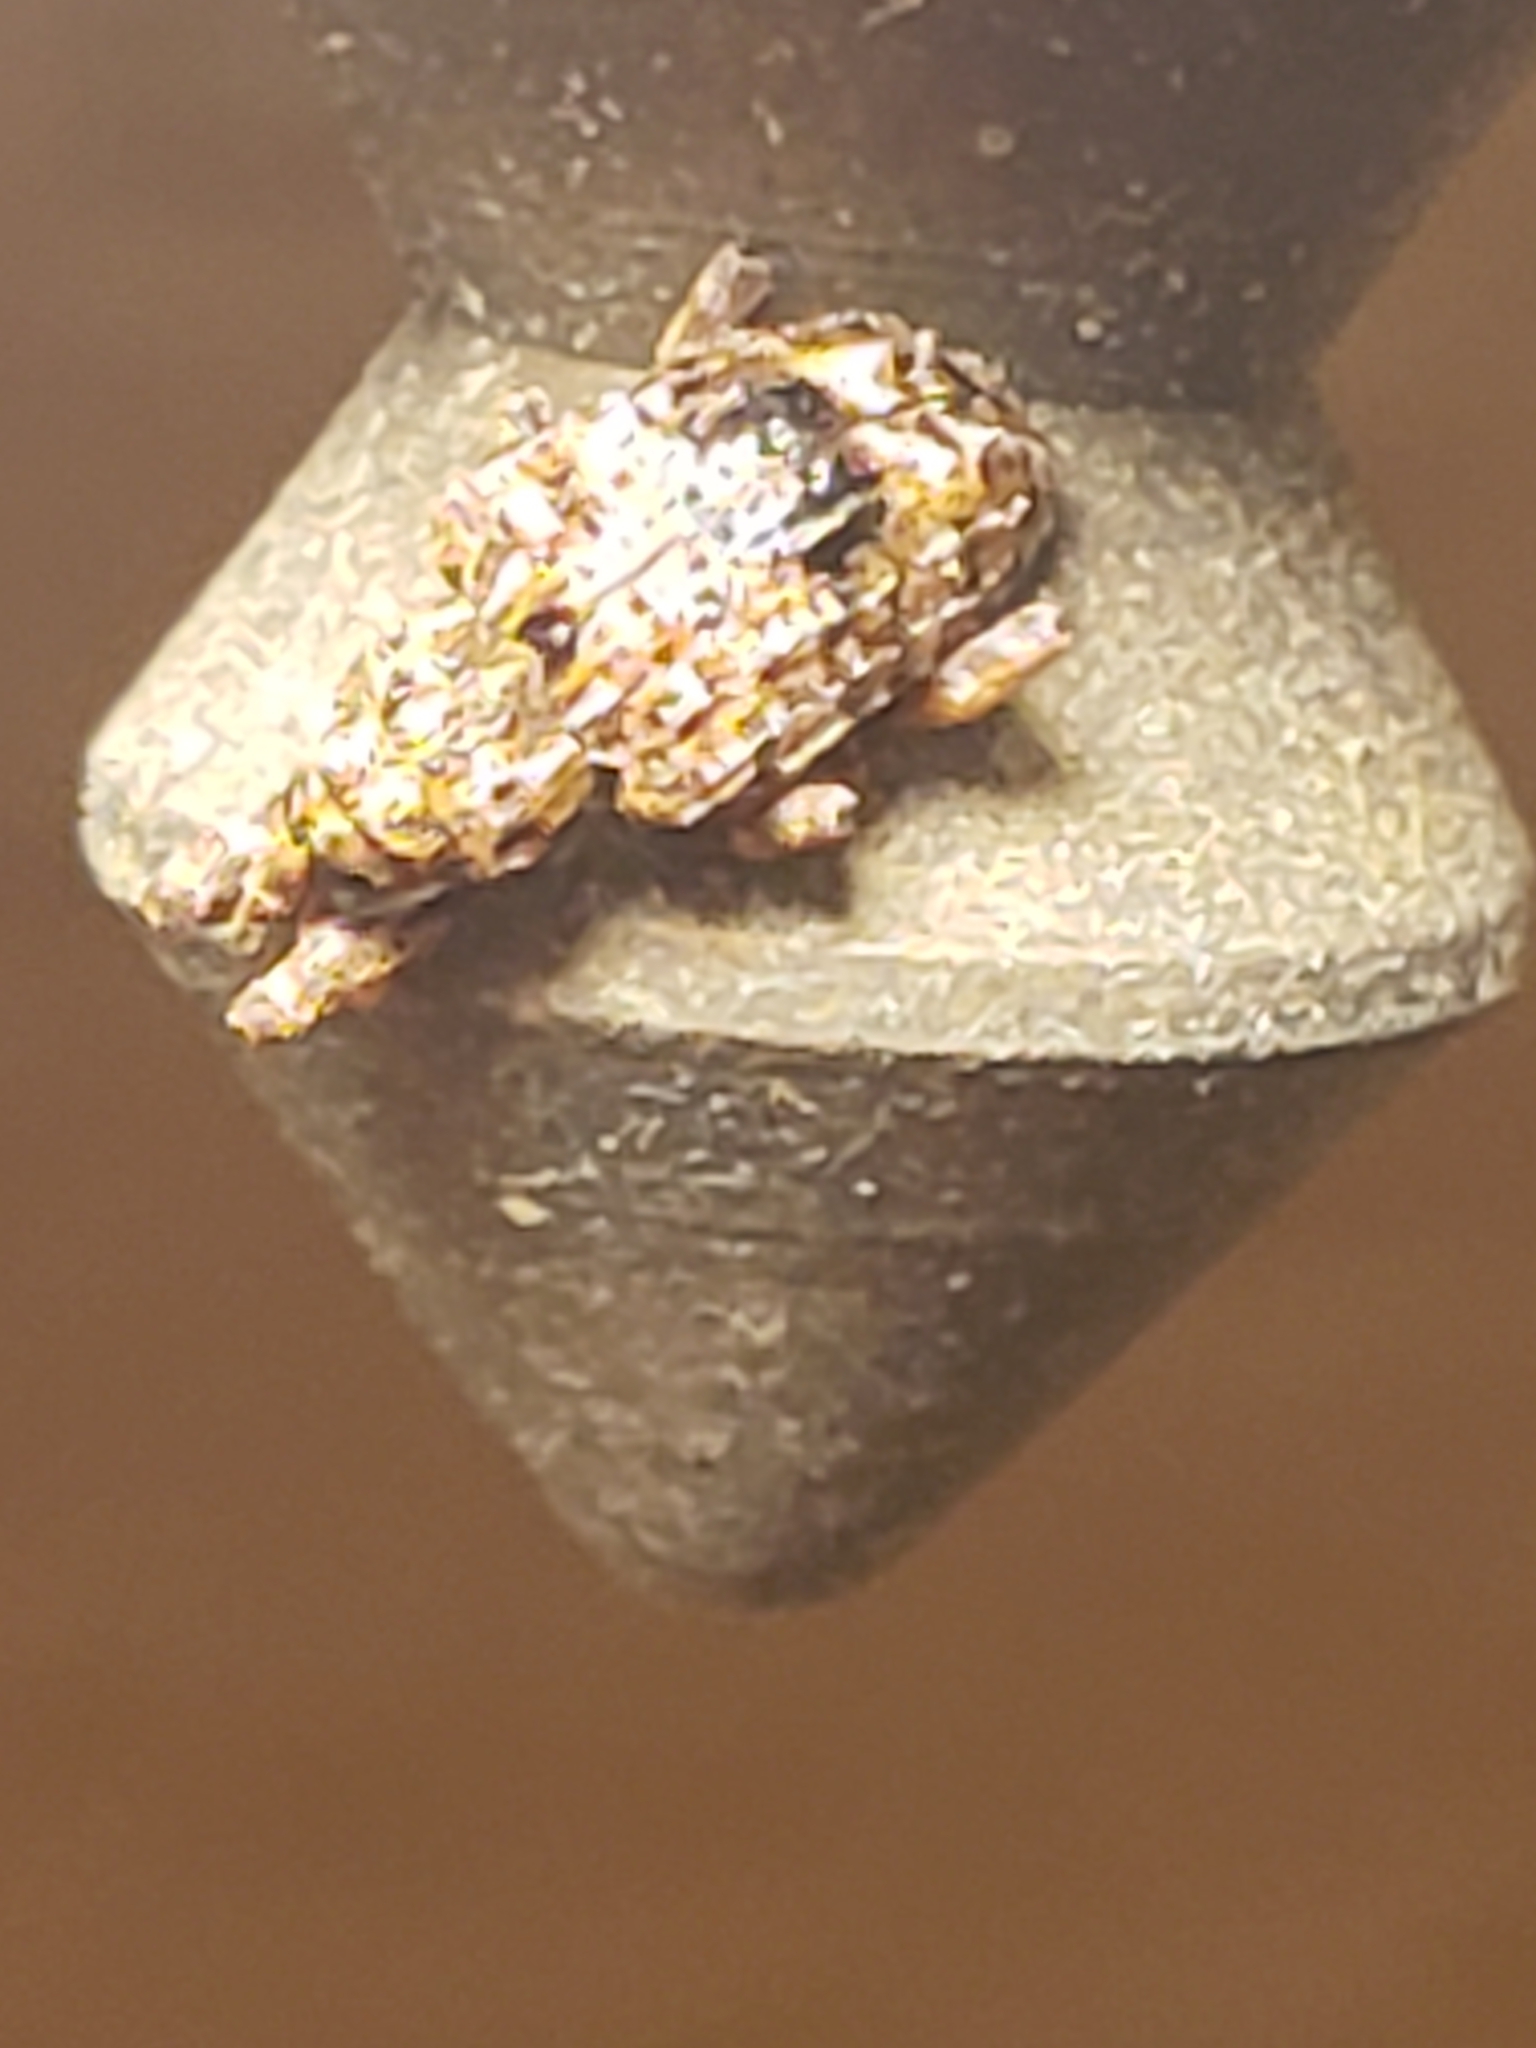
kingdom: Animalia
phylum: Arthropoda
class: Insecta
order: Coleoptera
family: Curculionidae
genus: Conotrachelus
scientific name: Conotrachelus nenuphar
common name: Plum curculio
